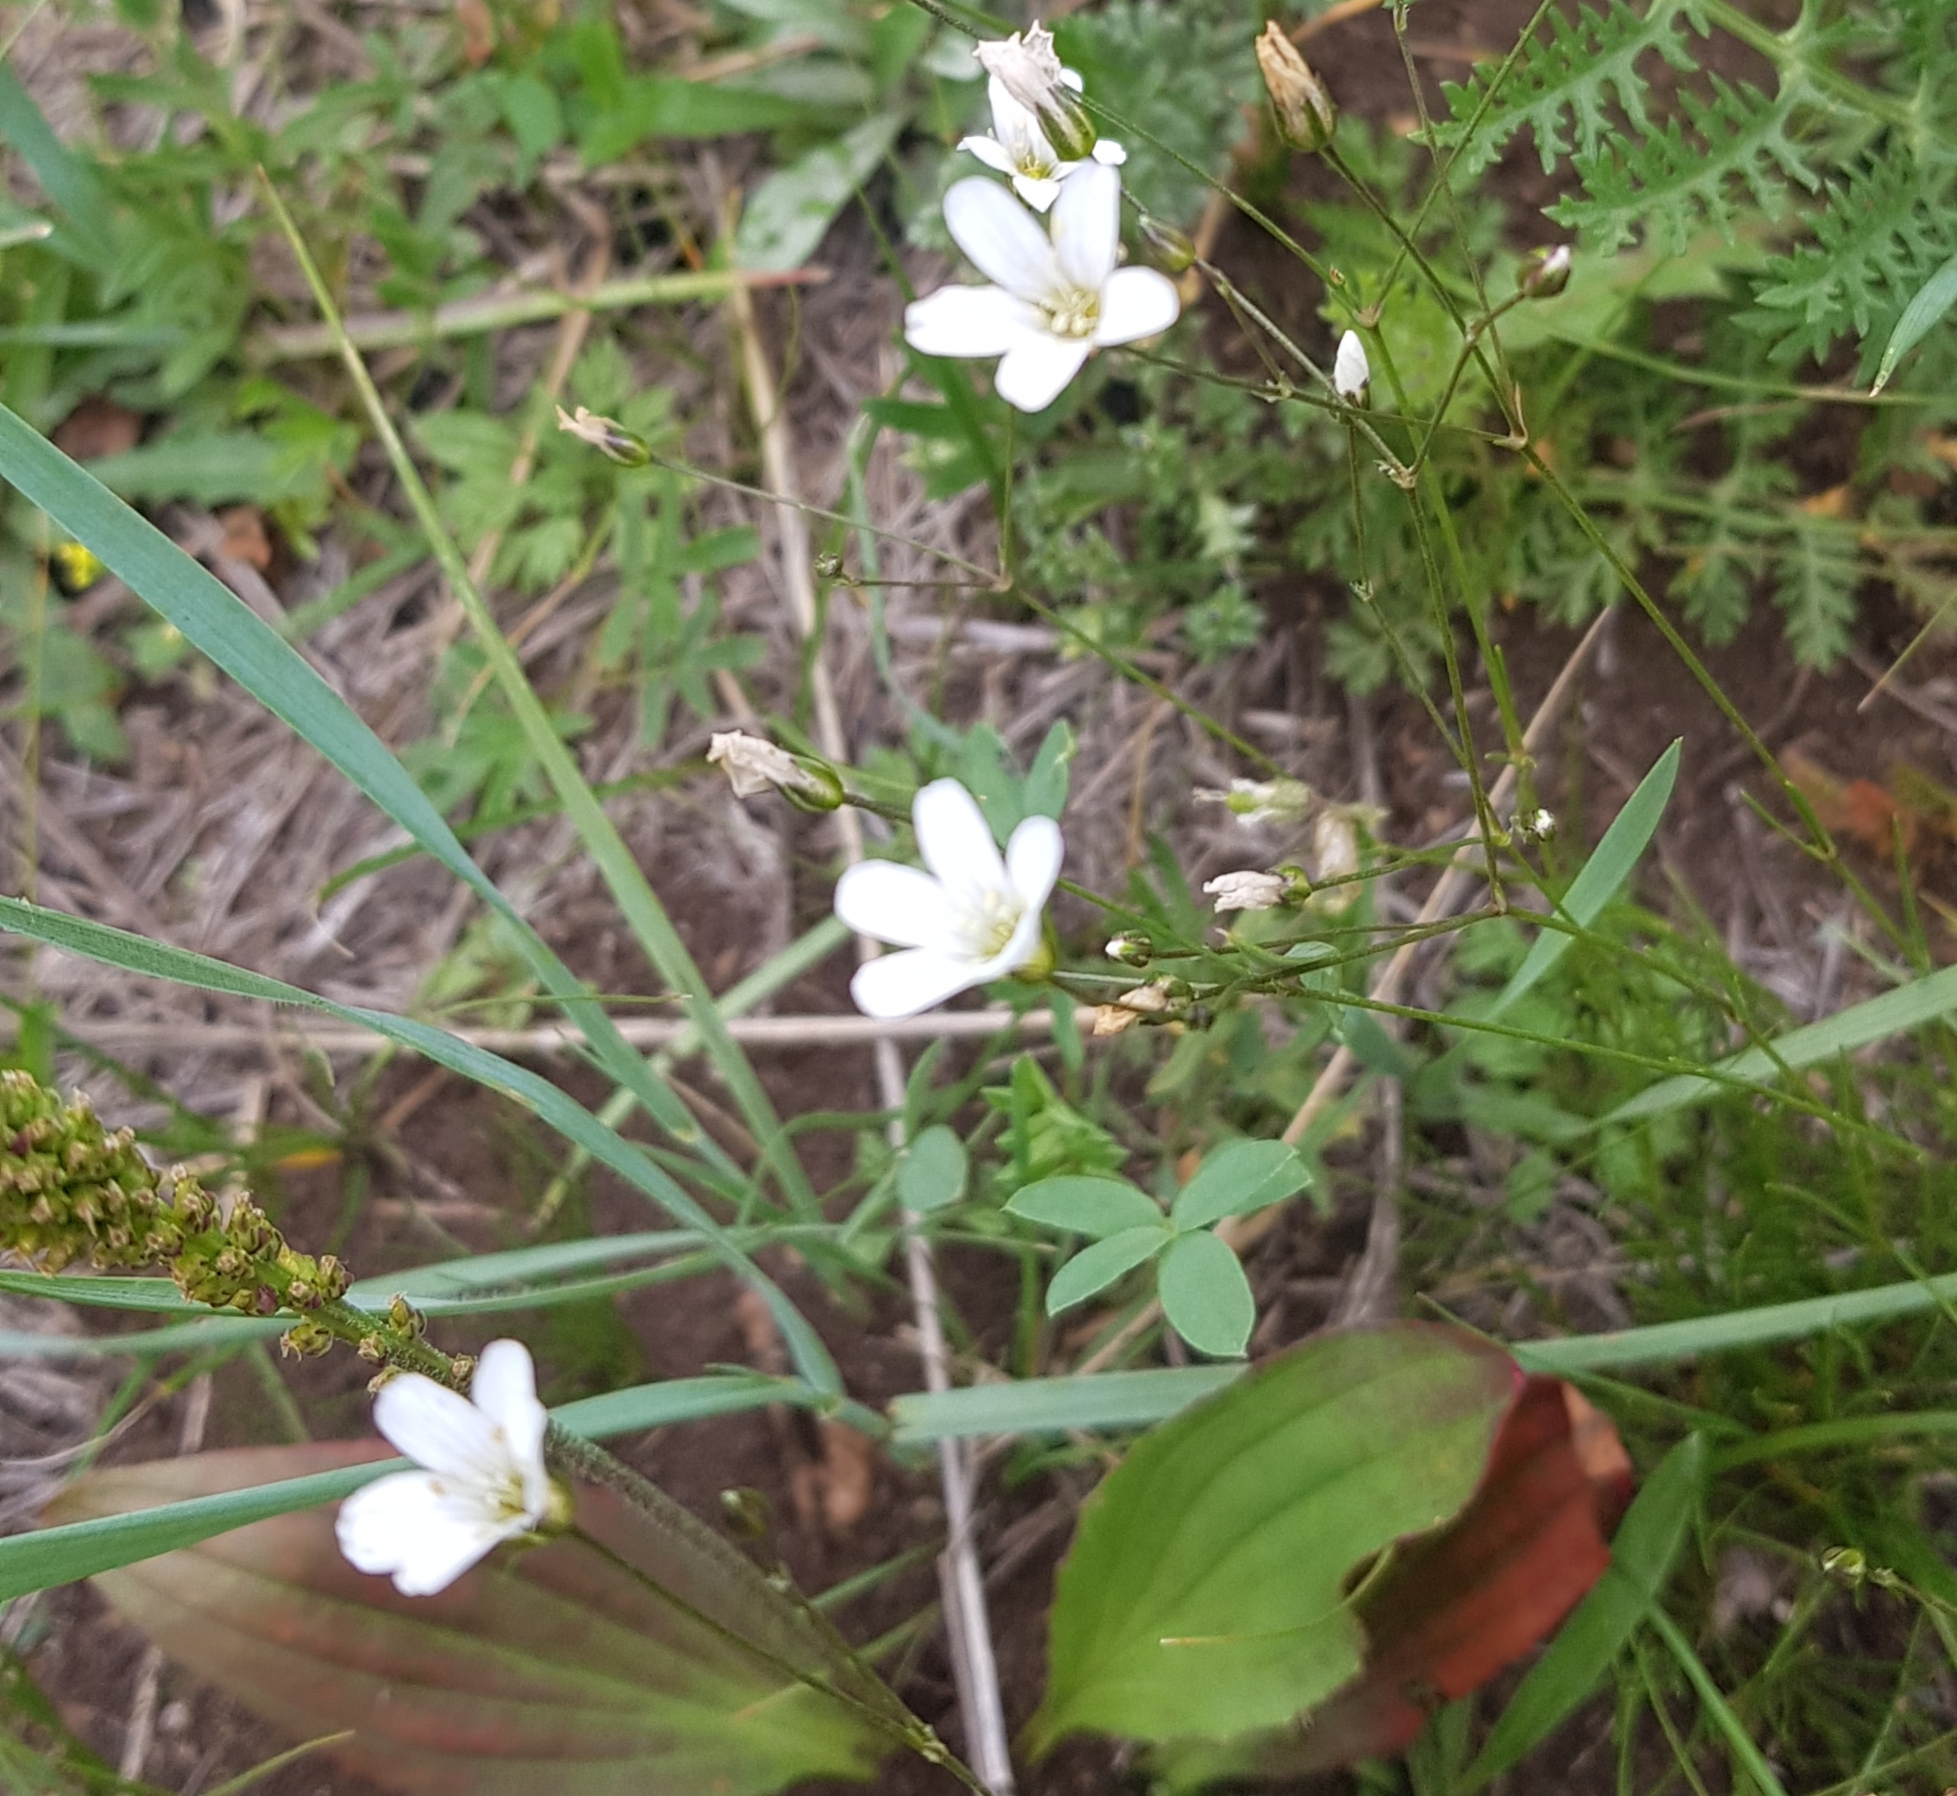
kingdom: Plantae
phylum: Tracheophyta
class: Magnoliopsida
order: Caryophyllales
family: Caryophyllaceae
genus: Eremogone
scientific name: Eremogone capillaris
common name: Slender mountain sandwort
